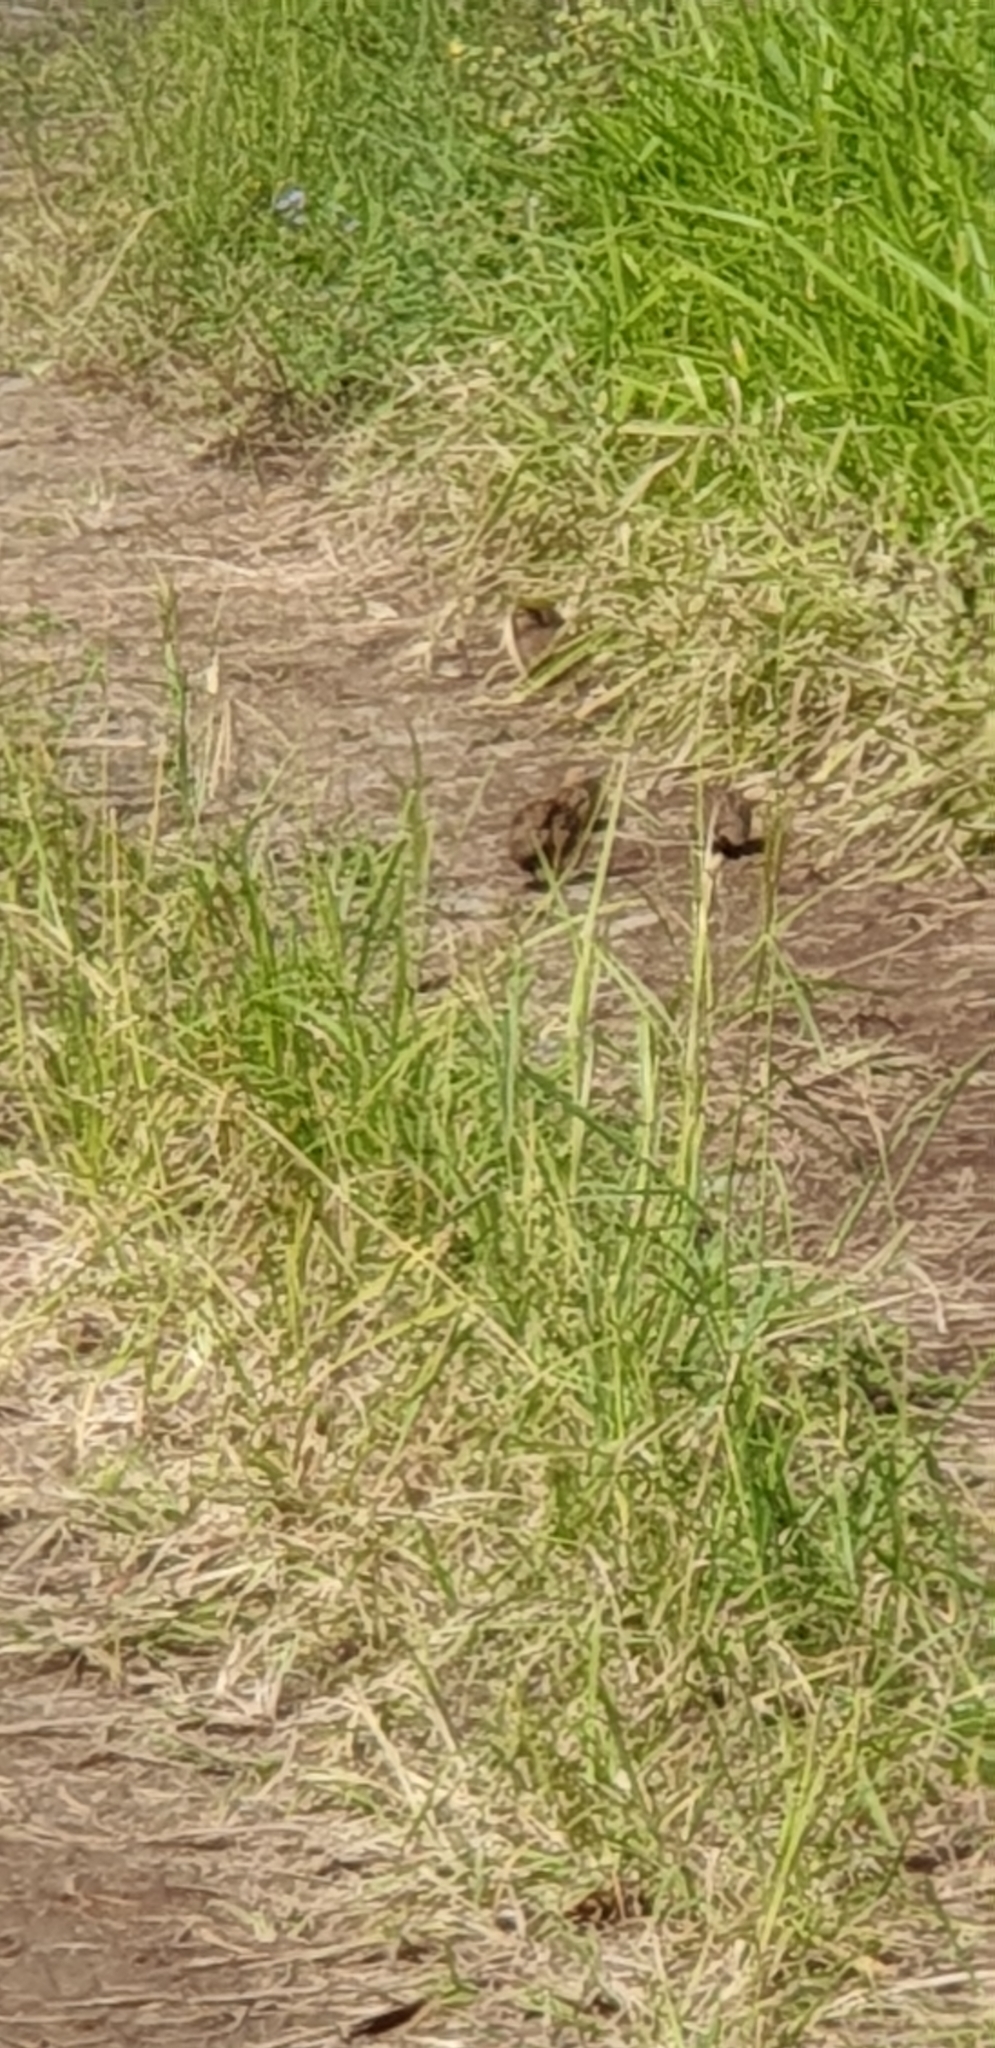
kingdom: Animalia
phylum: Chordata
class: Aves
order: Galliformes
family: Phasianidae
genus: Synoicus
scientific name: Synoicus ypsilophorus
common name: Brown quail
